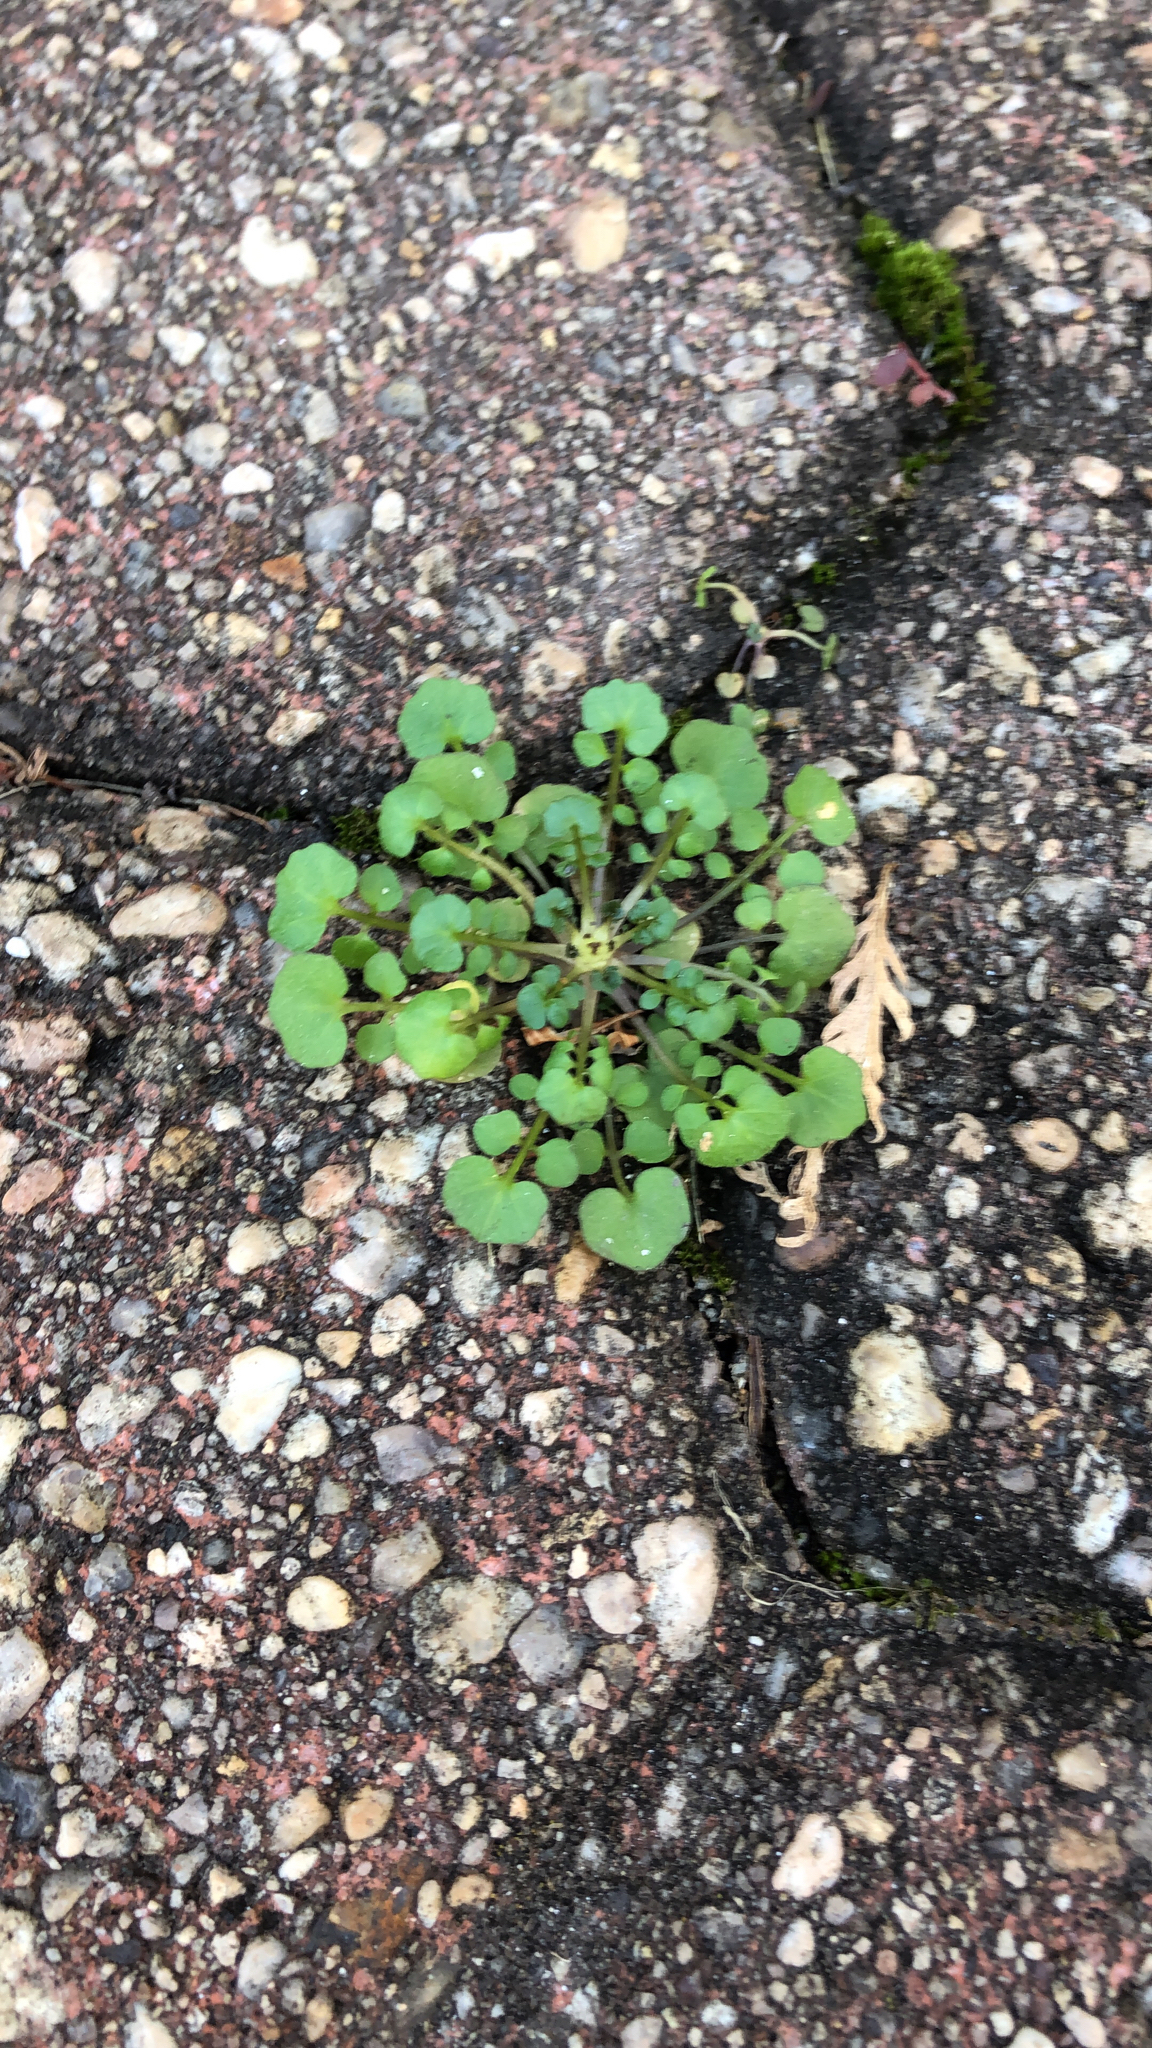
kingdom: Plantae
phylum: Tracheophyta
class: Magnoliopsida
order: Brassicales
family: Brassicaceae
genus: Cardamine
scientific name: Cardamine hirsuta
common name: Hairy bittercress
